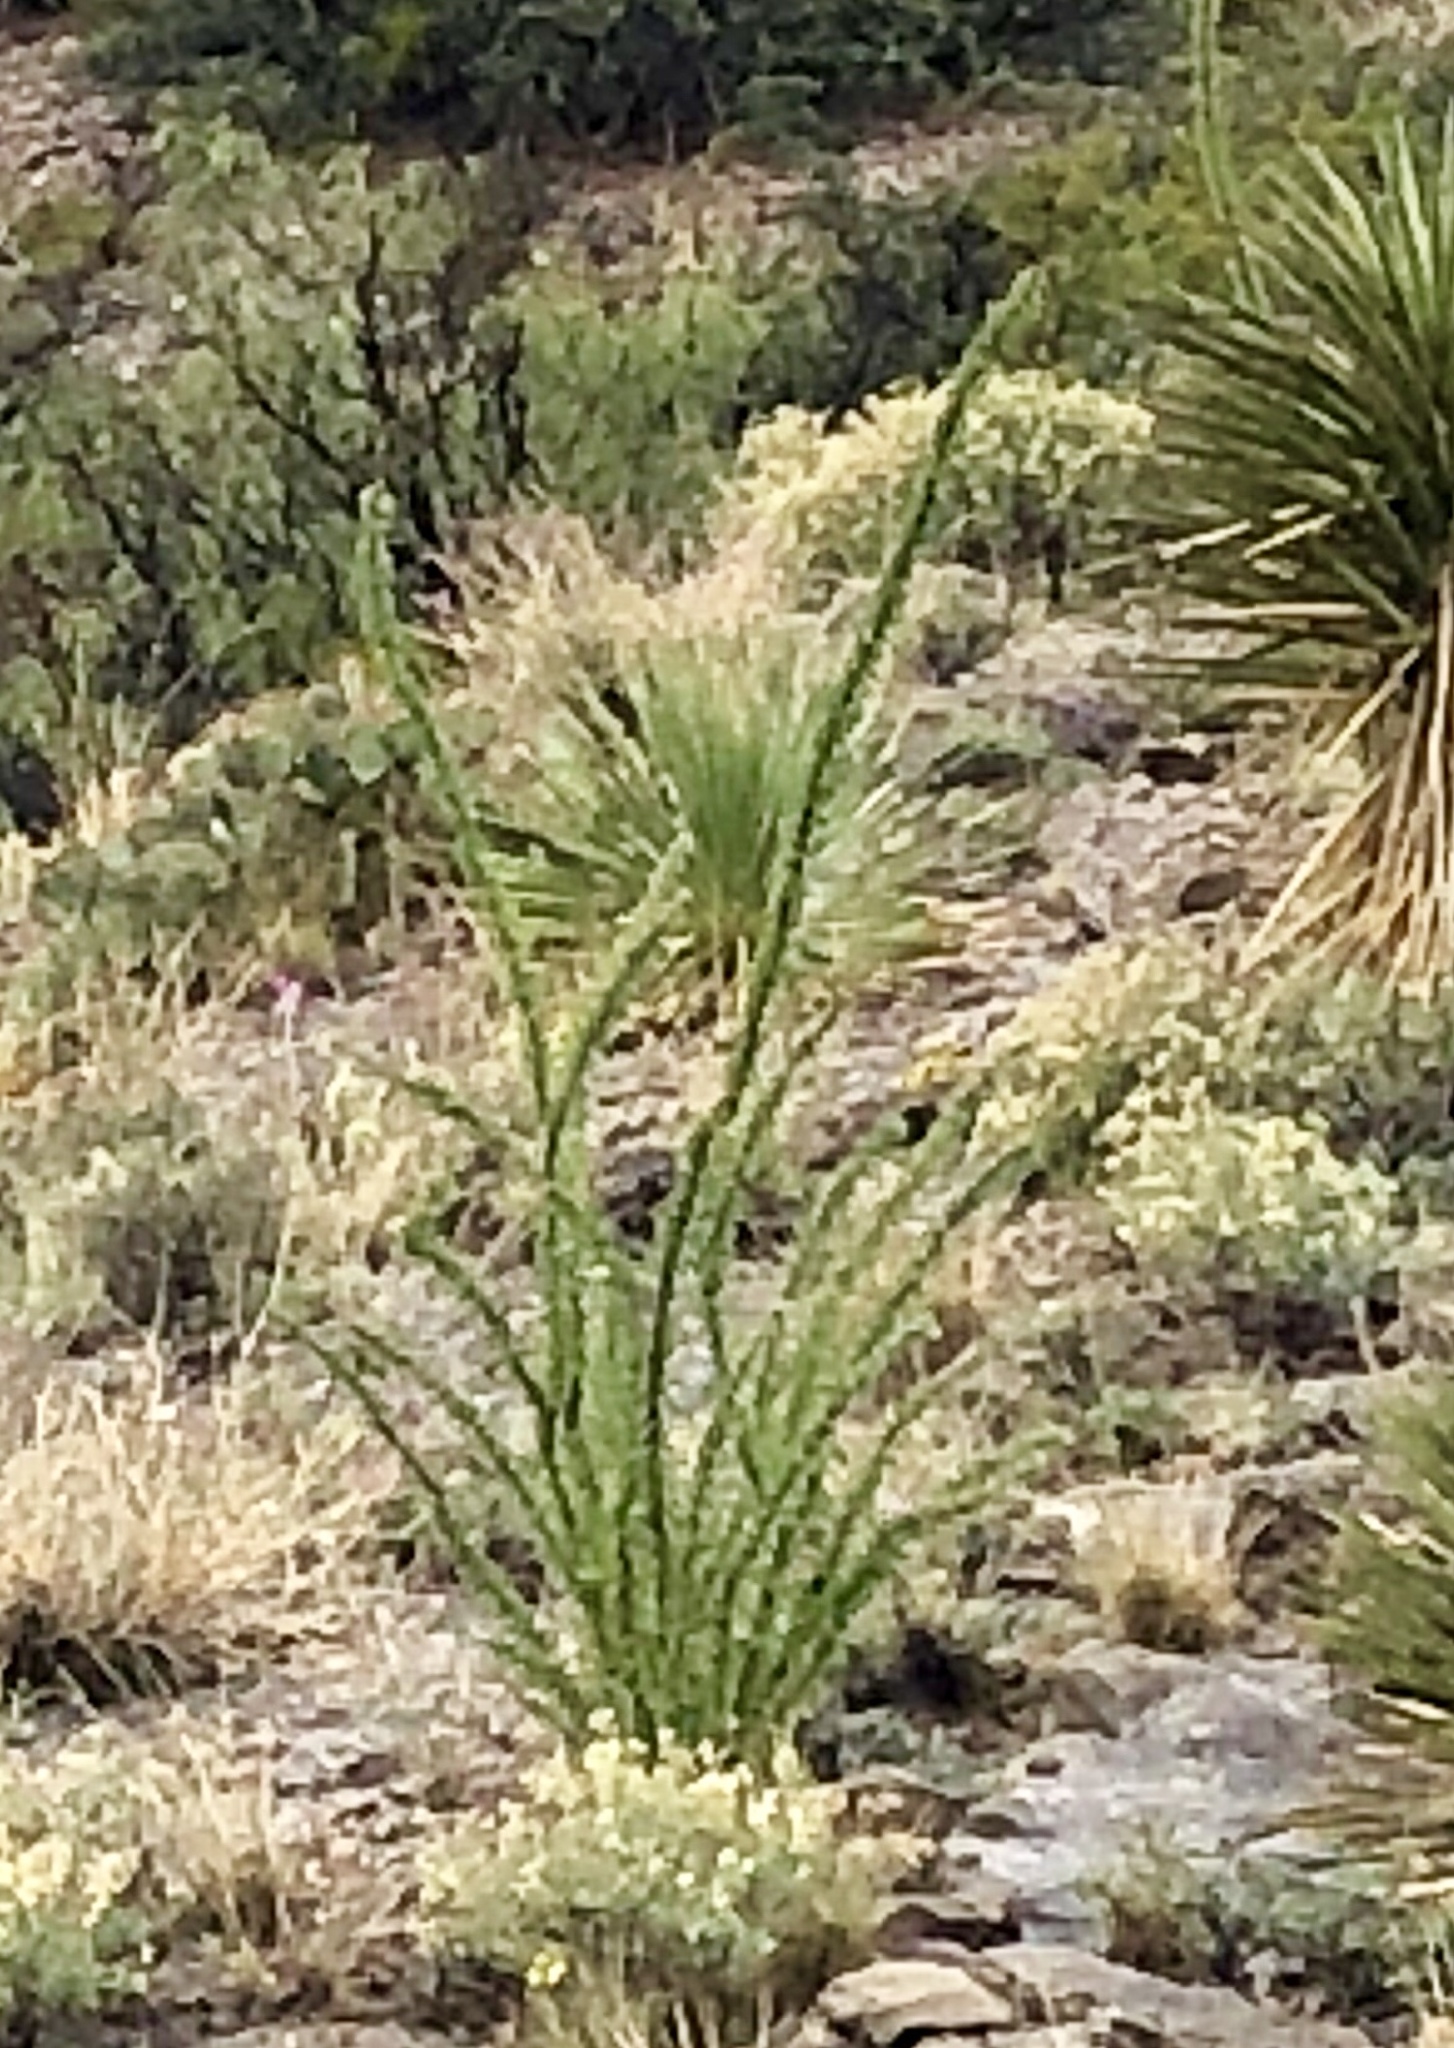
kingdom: Plantae
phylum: Tracheophyta
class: Magnoliopsida
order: Ericales
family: Fouquieriaceae
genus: Fouquieria
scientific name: Fouquieria splendens
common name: Vine-cactus
